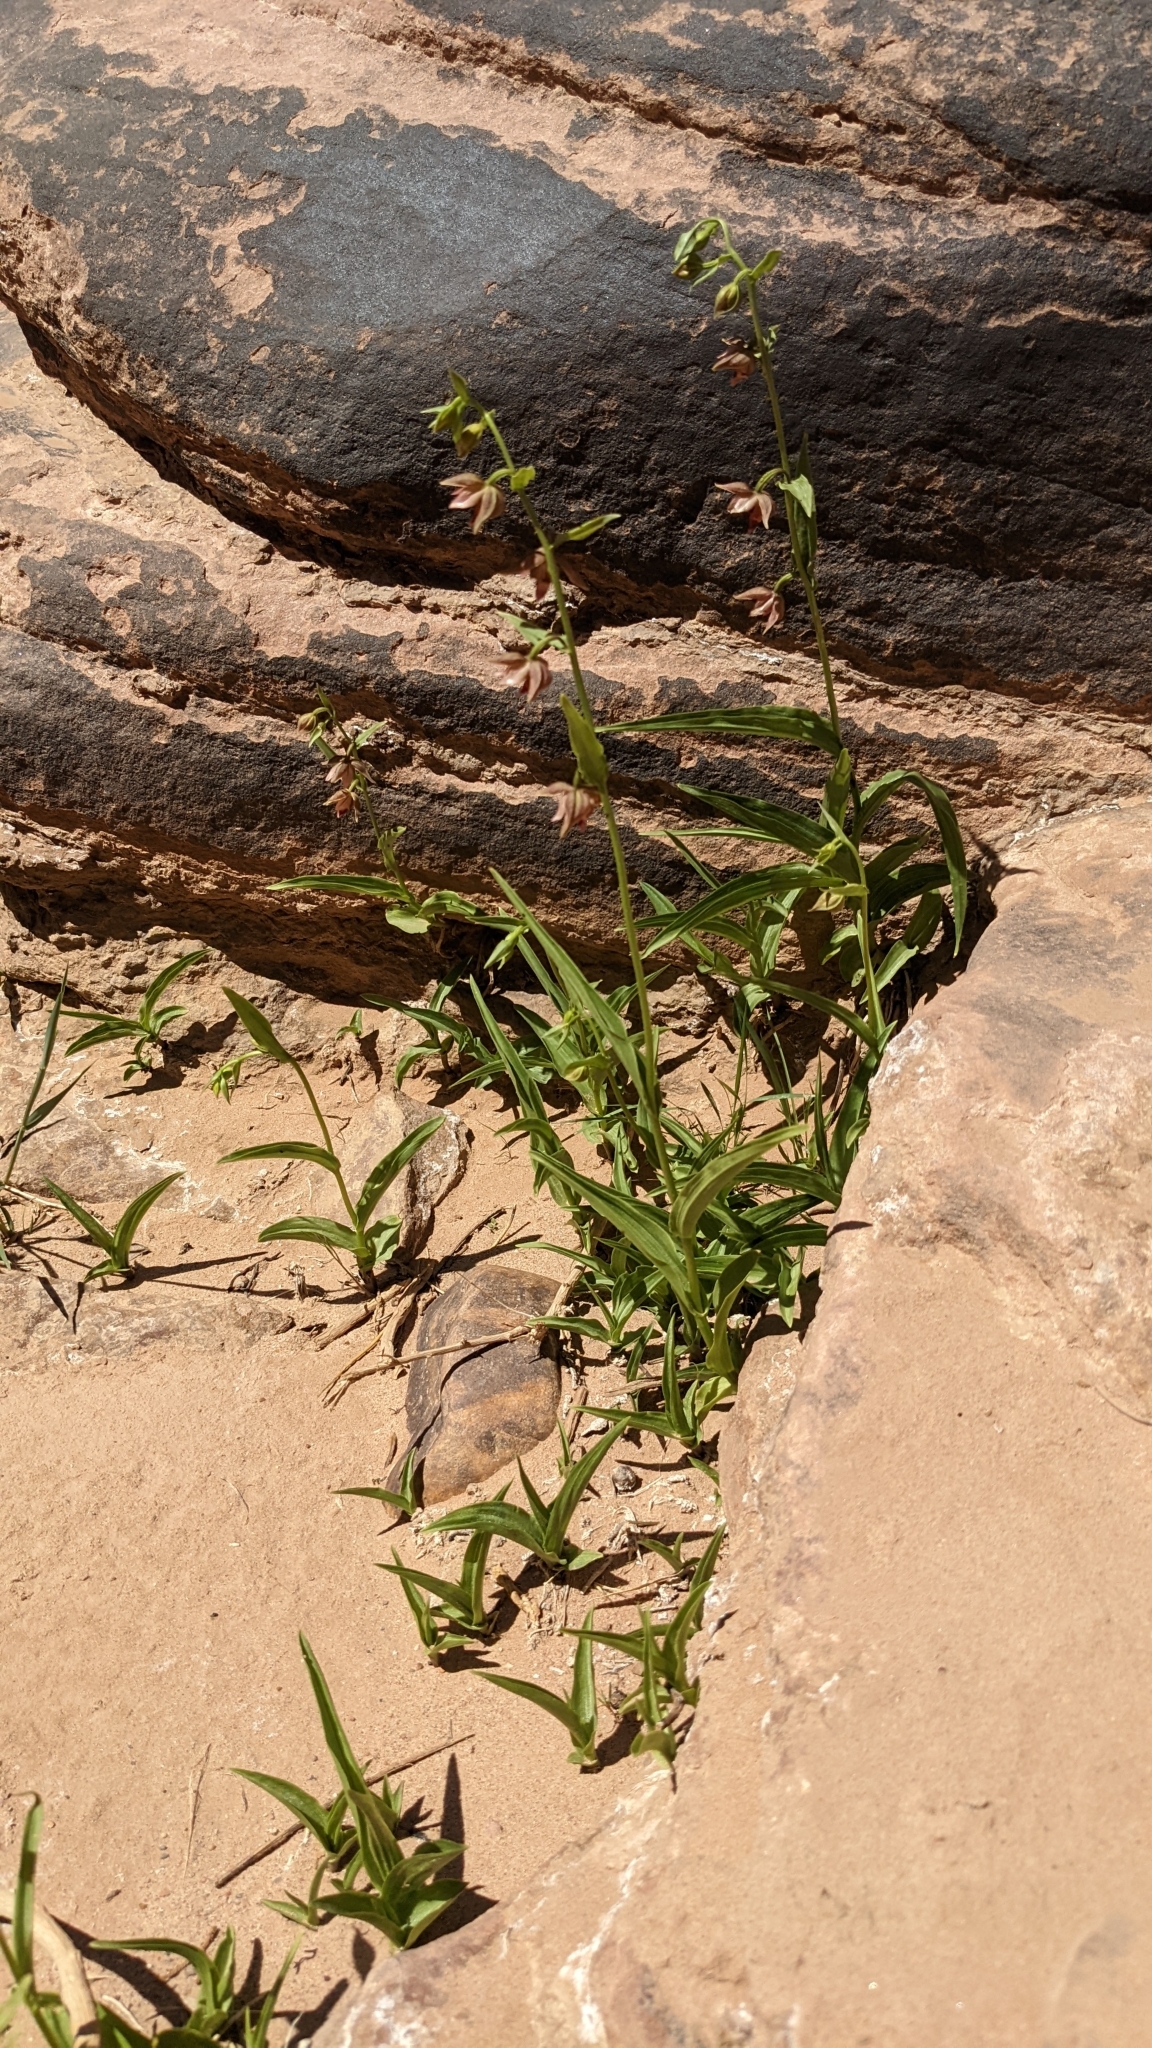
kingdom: Plantae
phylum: Tracheophyta
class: Liliopsida
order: Asparagales
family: Orchidaceae
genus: Epipactis
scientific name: Epipactis gigantea
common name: Chatterbox
